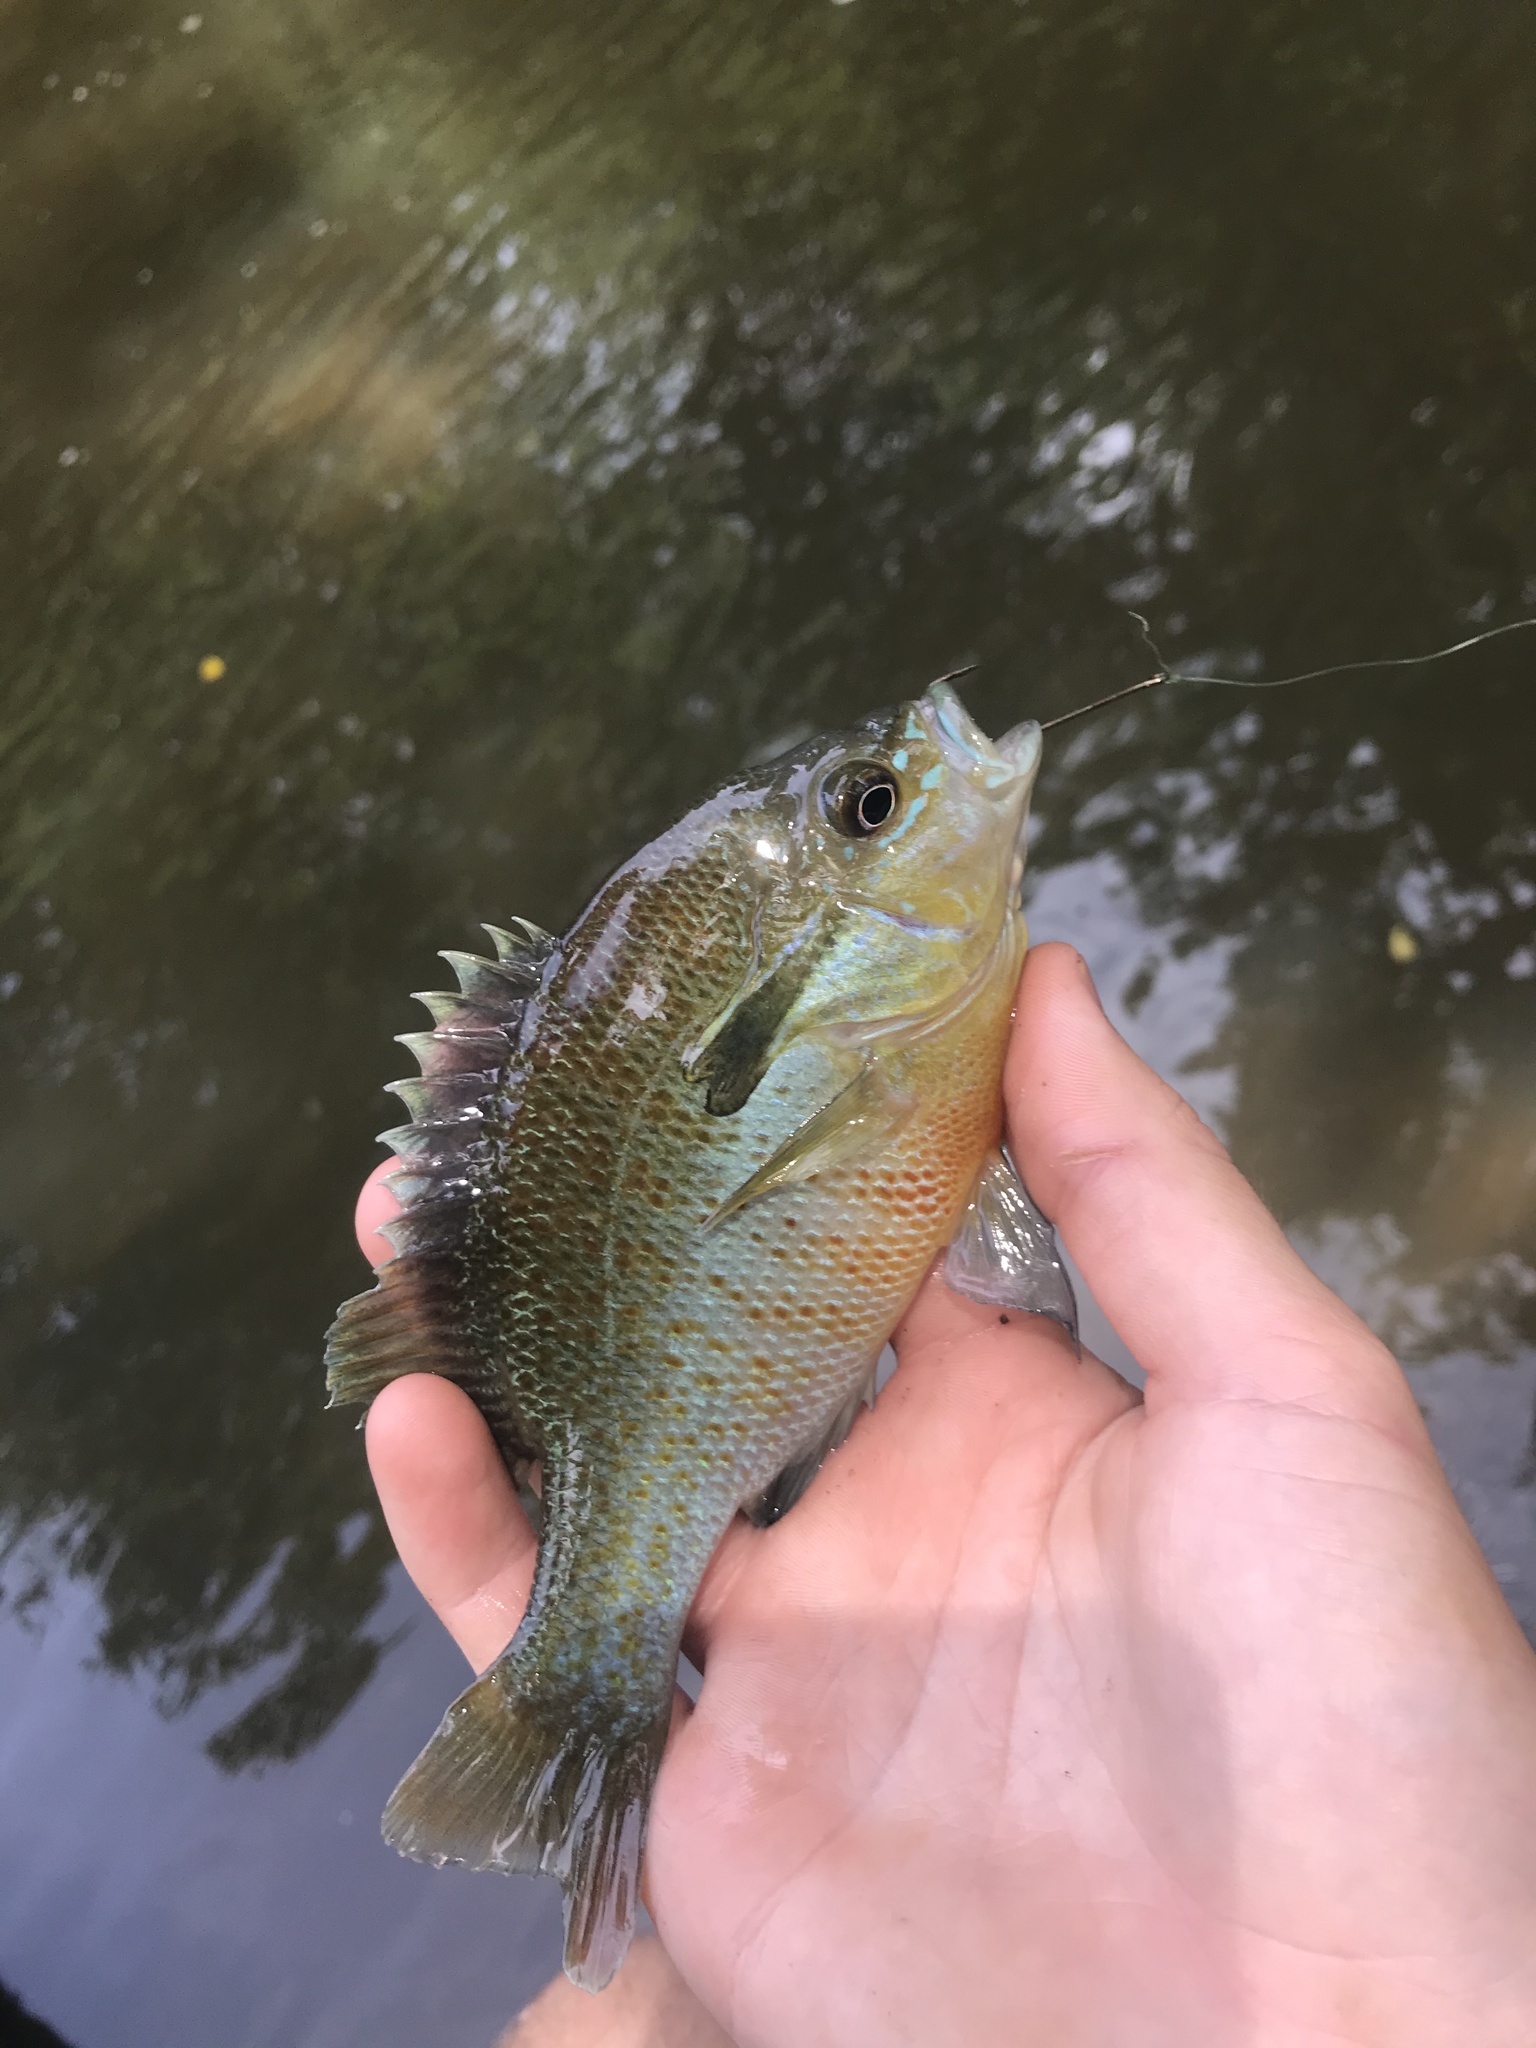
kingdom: Animalia
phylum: Chordata
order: Perciformes
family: Centrarchidae
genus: Lepomis
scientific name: Lepomis auritus
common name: Redbreast sunfish
